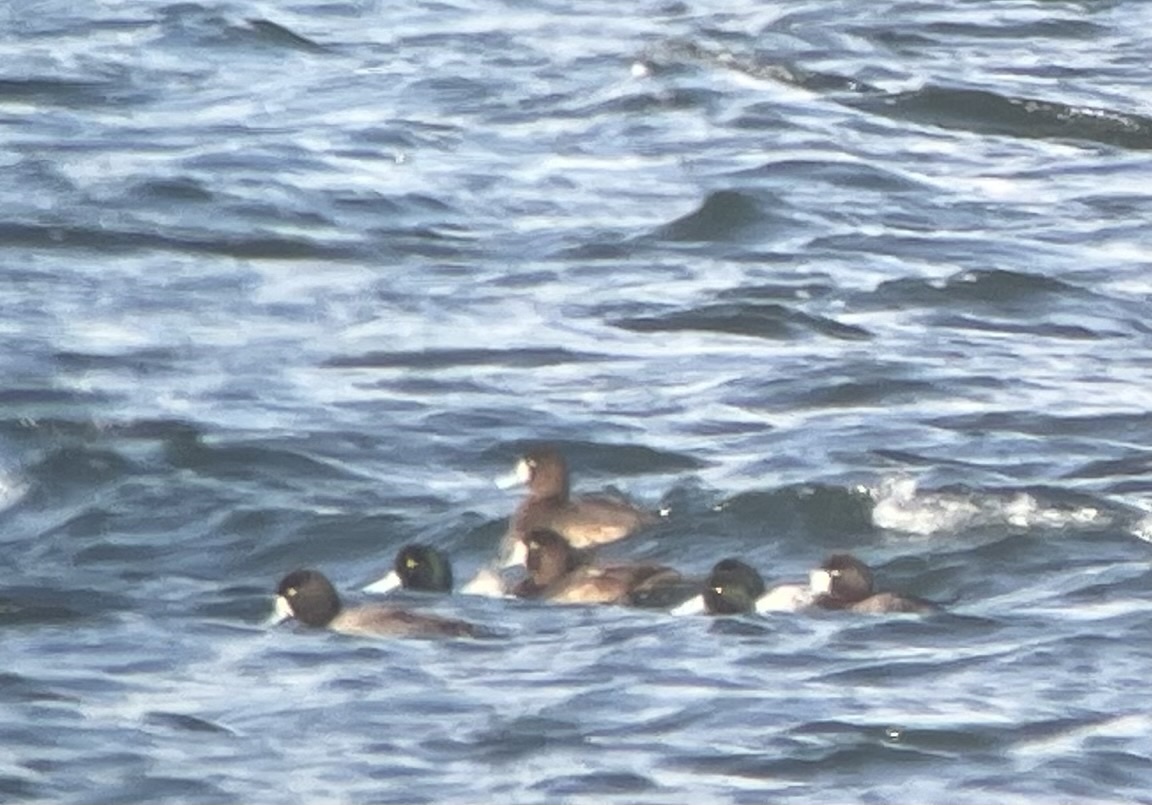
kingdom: Animalia
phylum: Chordata
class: Aves
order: Anseriformes
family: Anatidae
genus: Aythya
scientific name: Aythya marila
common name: Greater scaup
